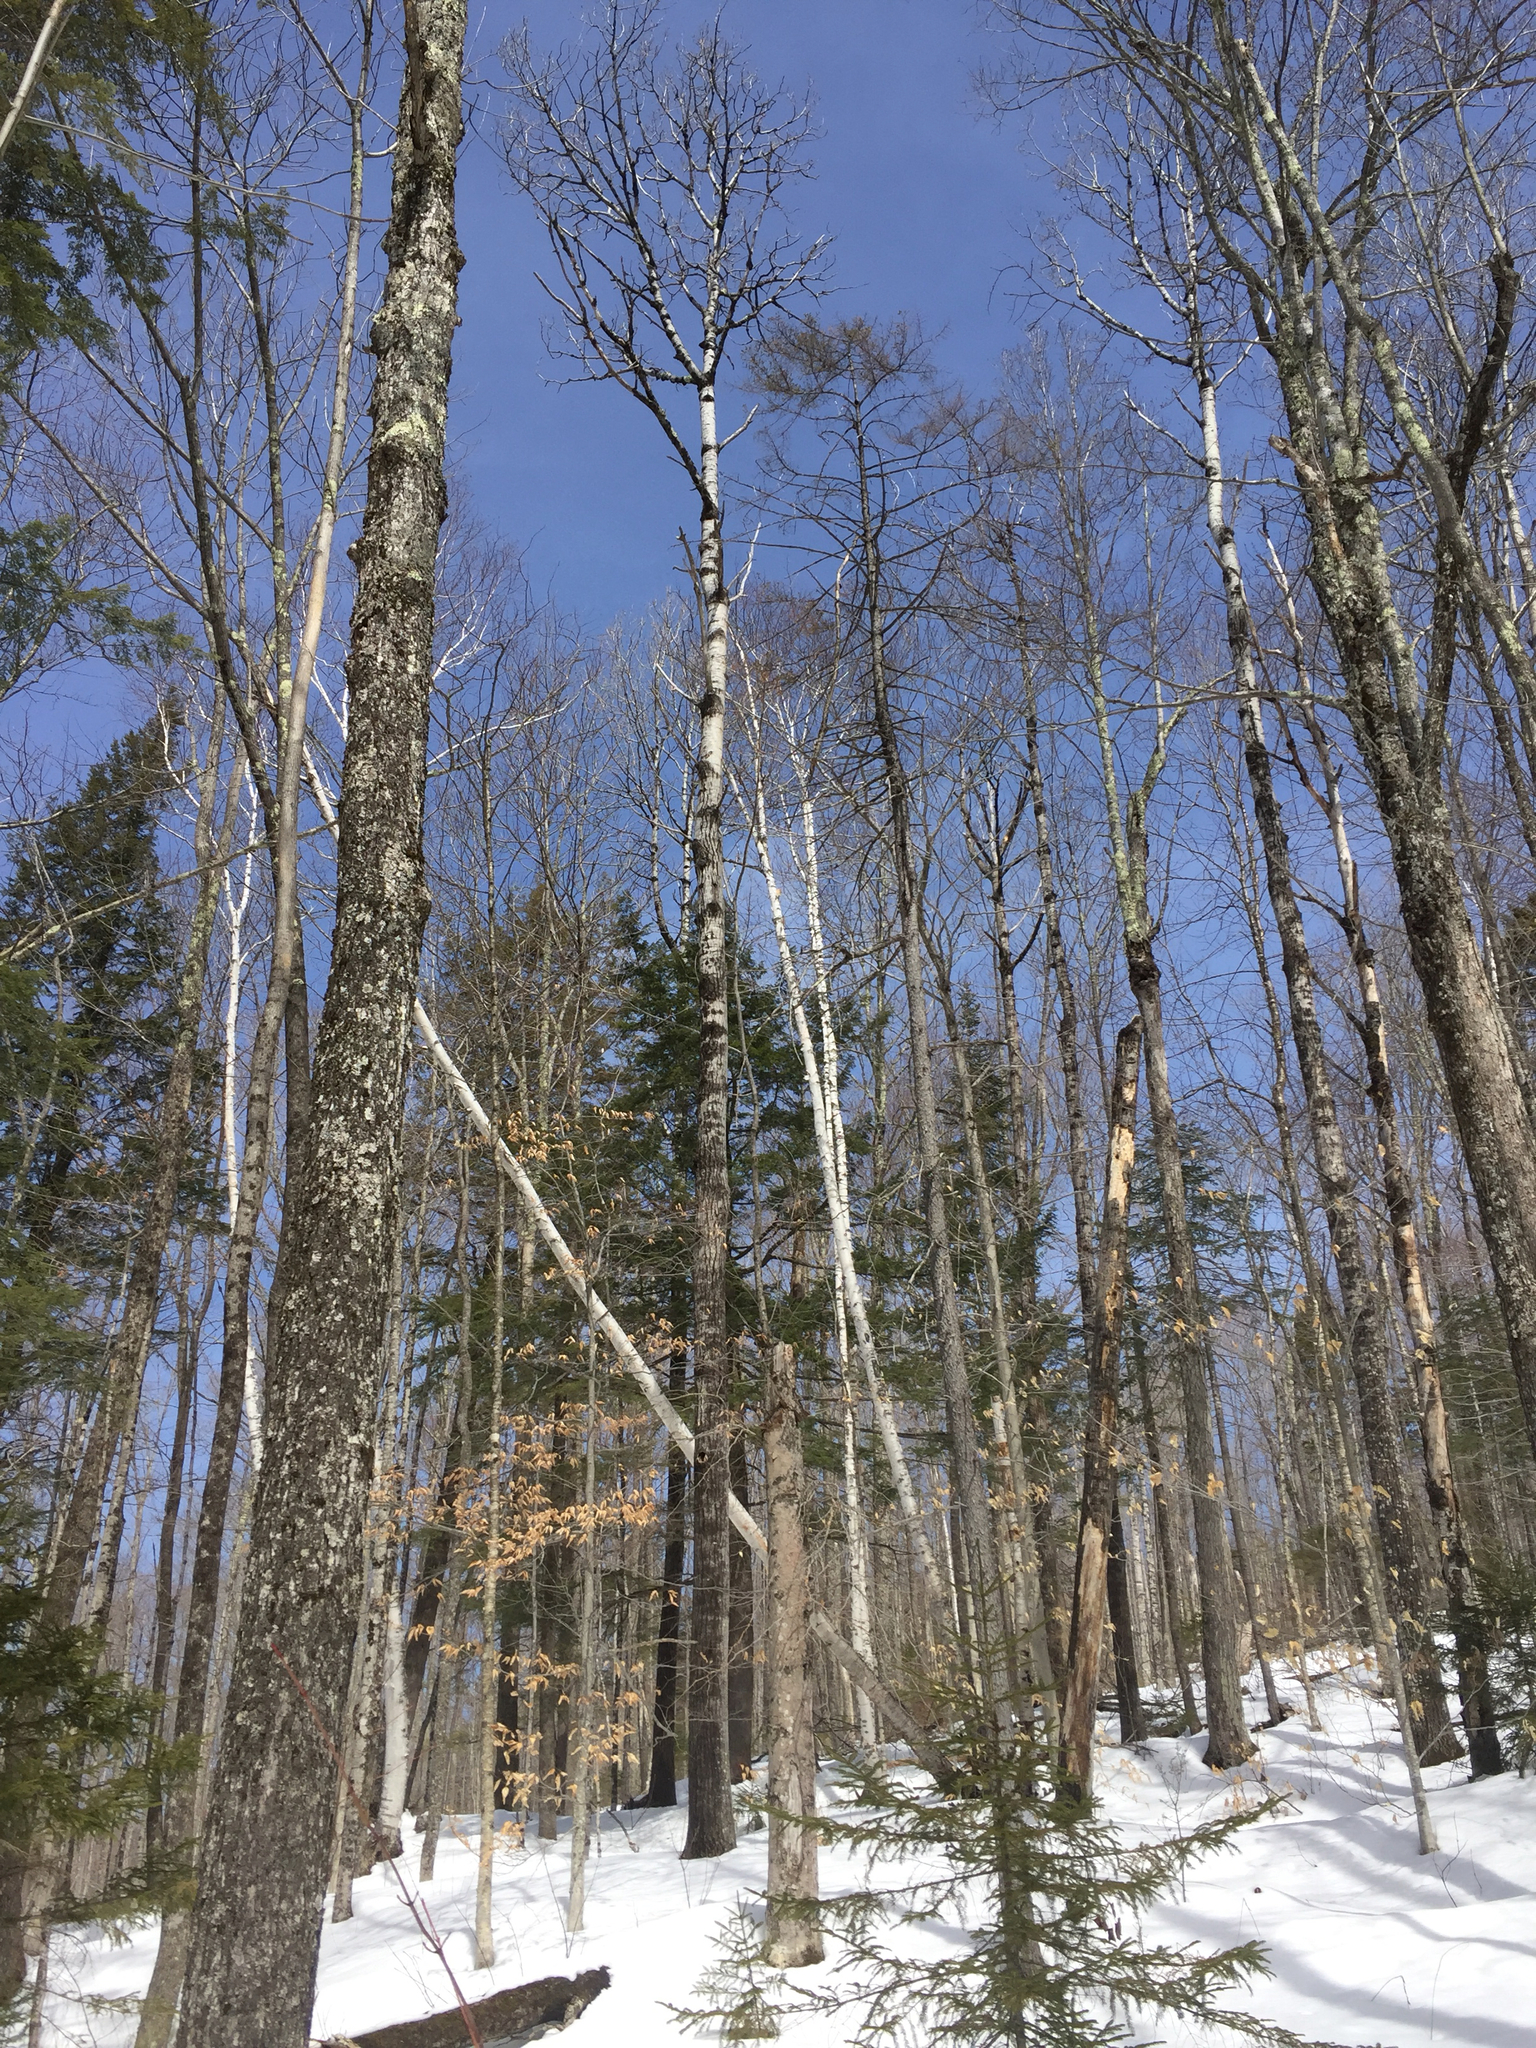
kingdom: Plantae
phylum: Tracheophyta
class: Pinopsida
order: Pinales
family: Pinaceae
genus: Picea
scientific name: Picea rubens
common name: Red spruce
